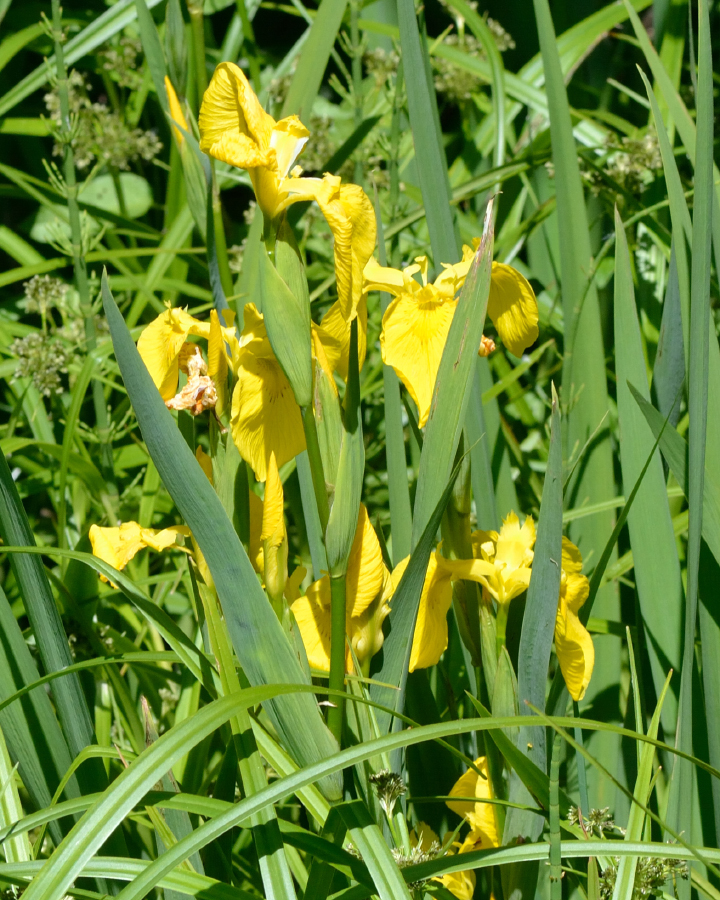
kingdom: Plantae
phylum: Tracheophyta
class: Liliopsida
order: Asparagales
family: Iridaceae
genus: Iris
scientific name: Iris pseudacorus
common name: Yellow flag
